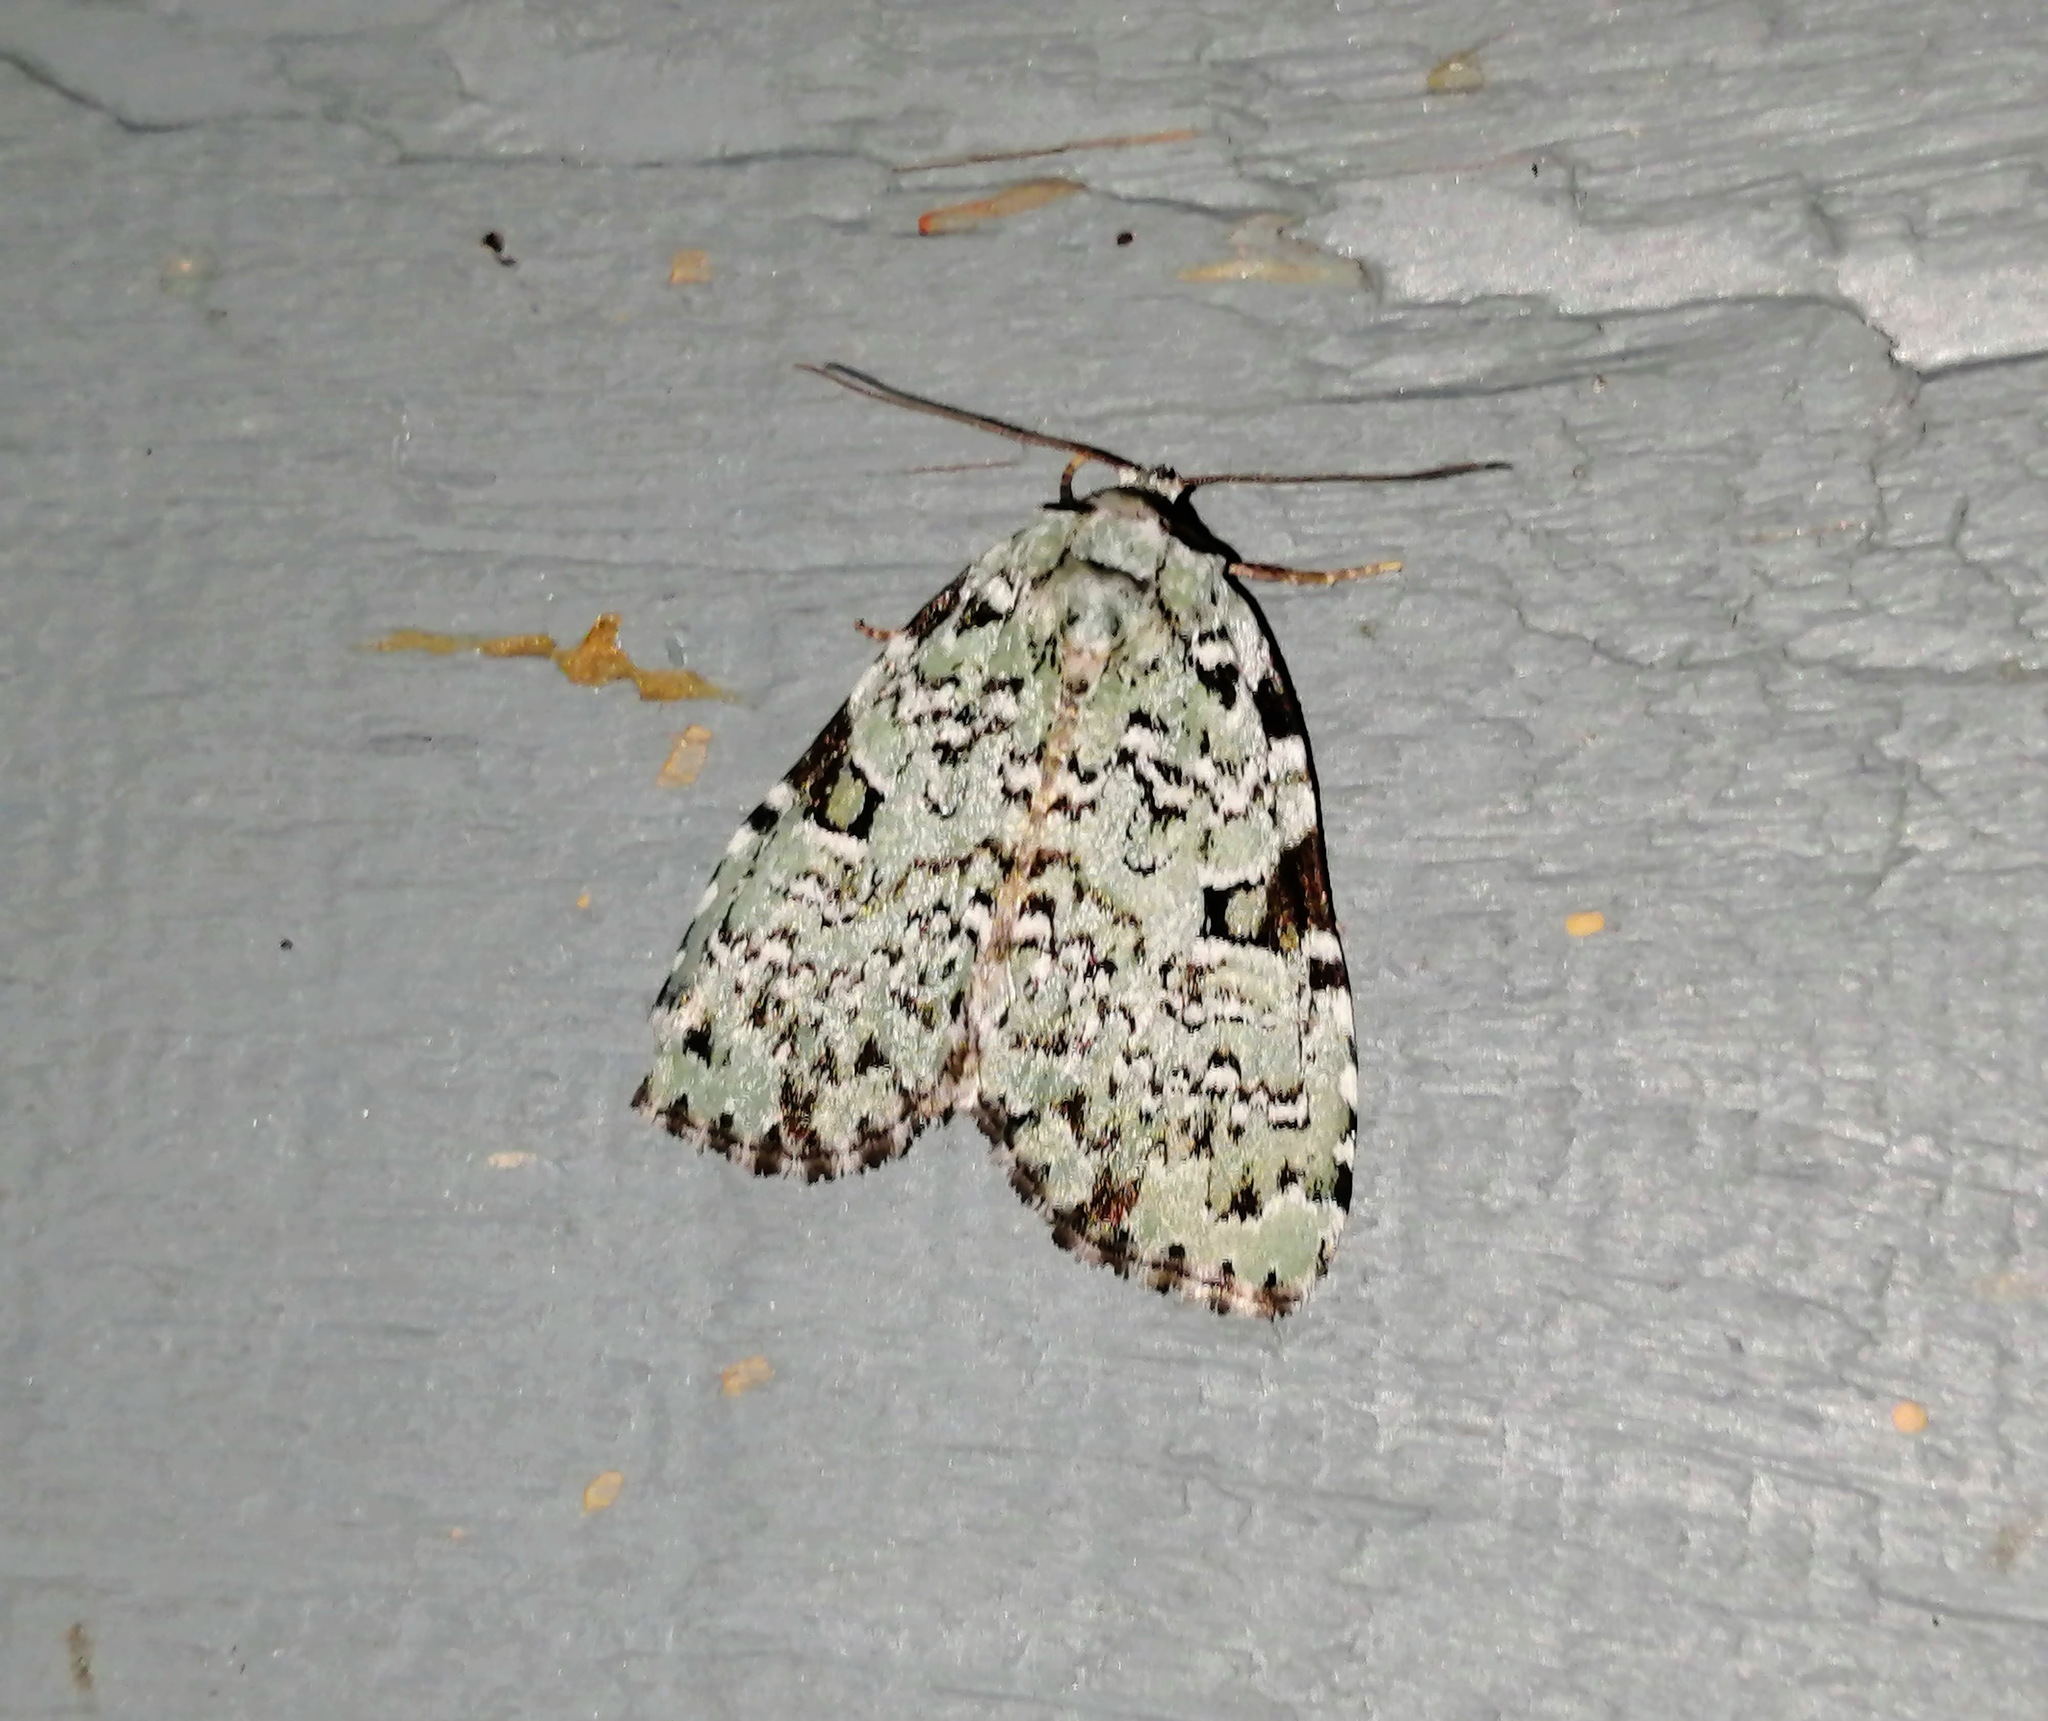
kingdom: Animalia
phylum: Arthropoda
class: Insecta
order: Lepidoptera
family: Noctuidae
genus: Leuconycta
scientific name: Leuconycta diphteroides
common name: Green leuconycta moth
